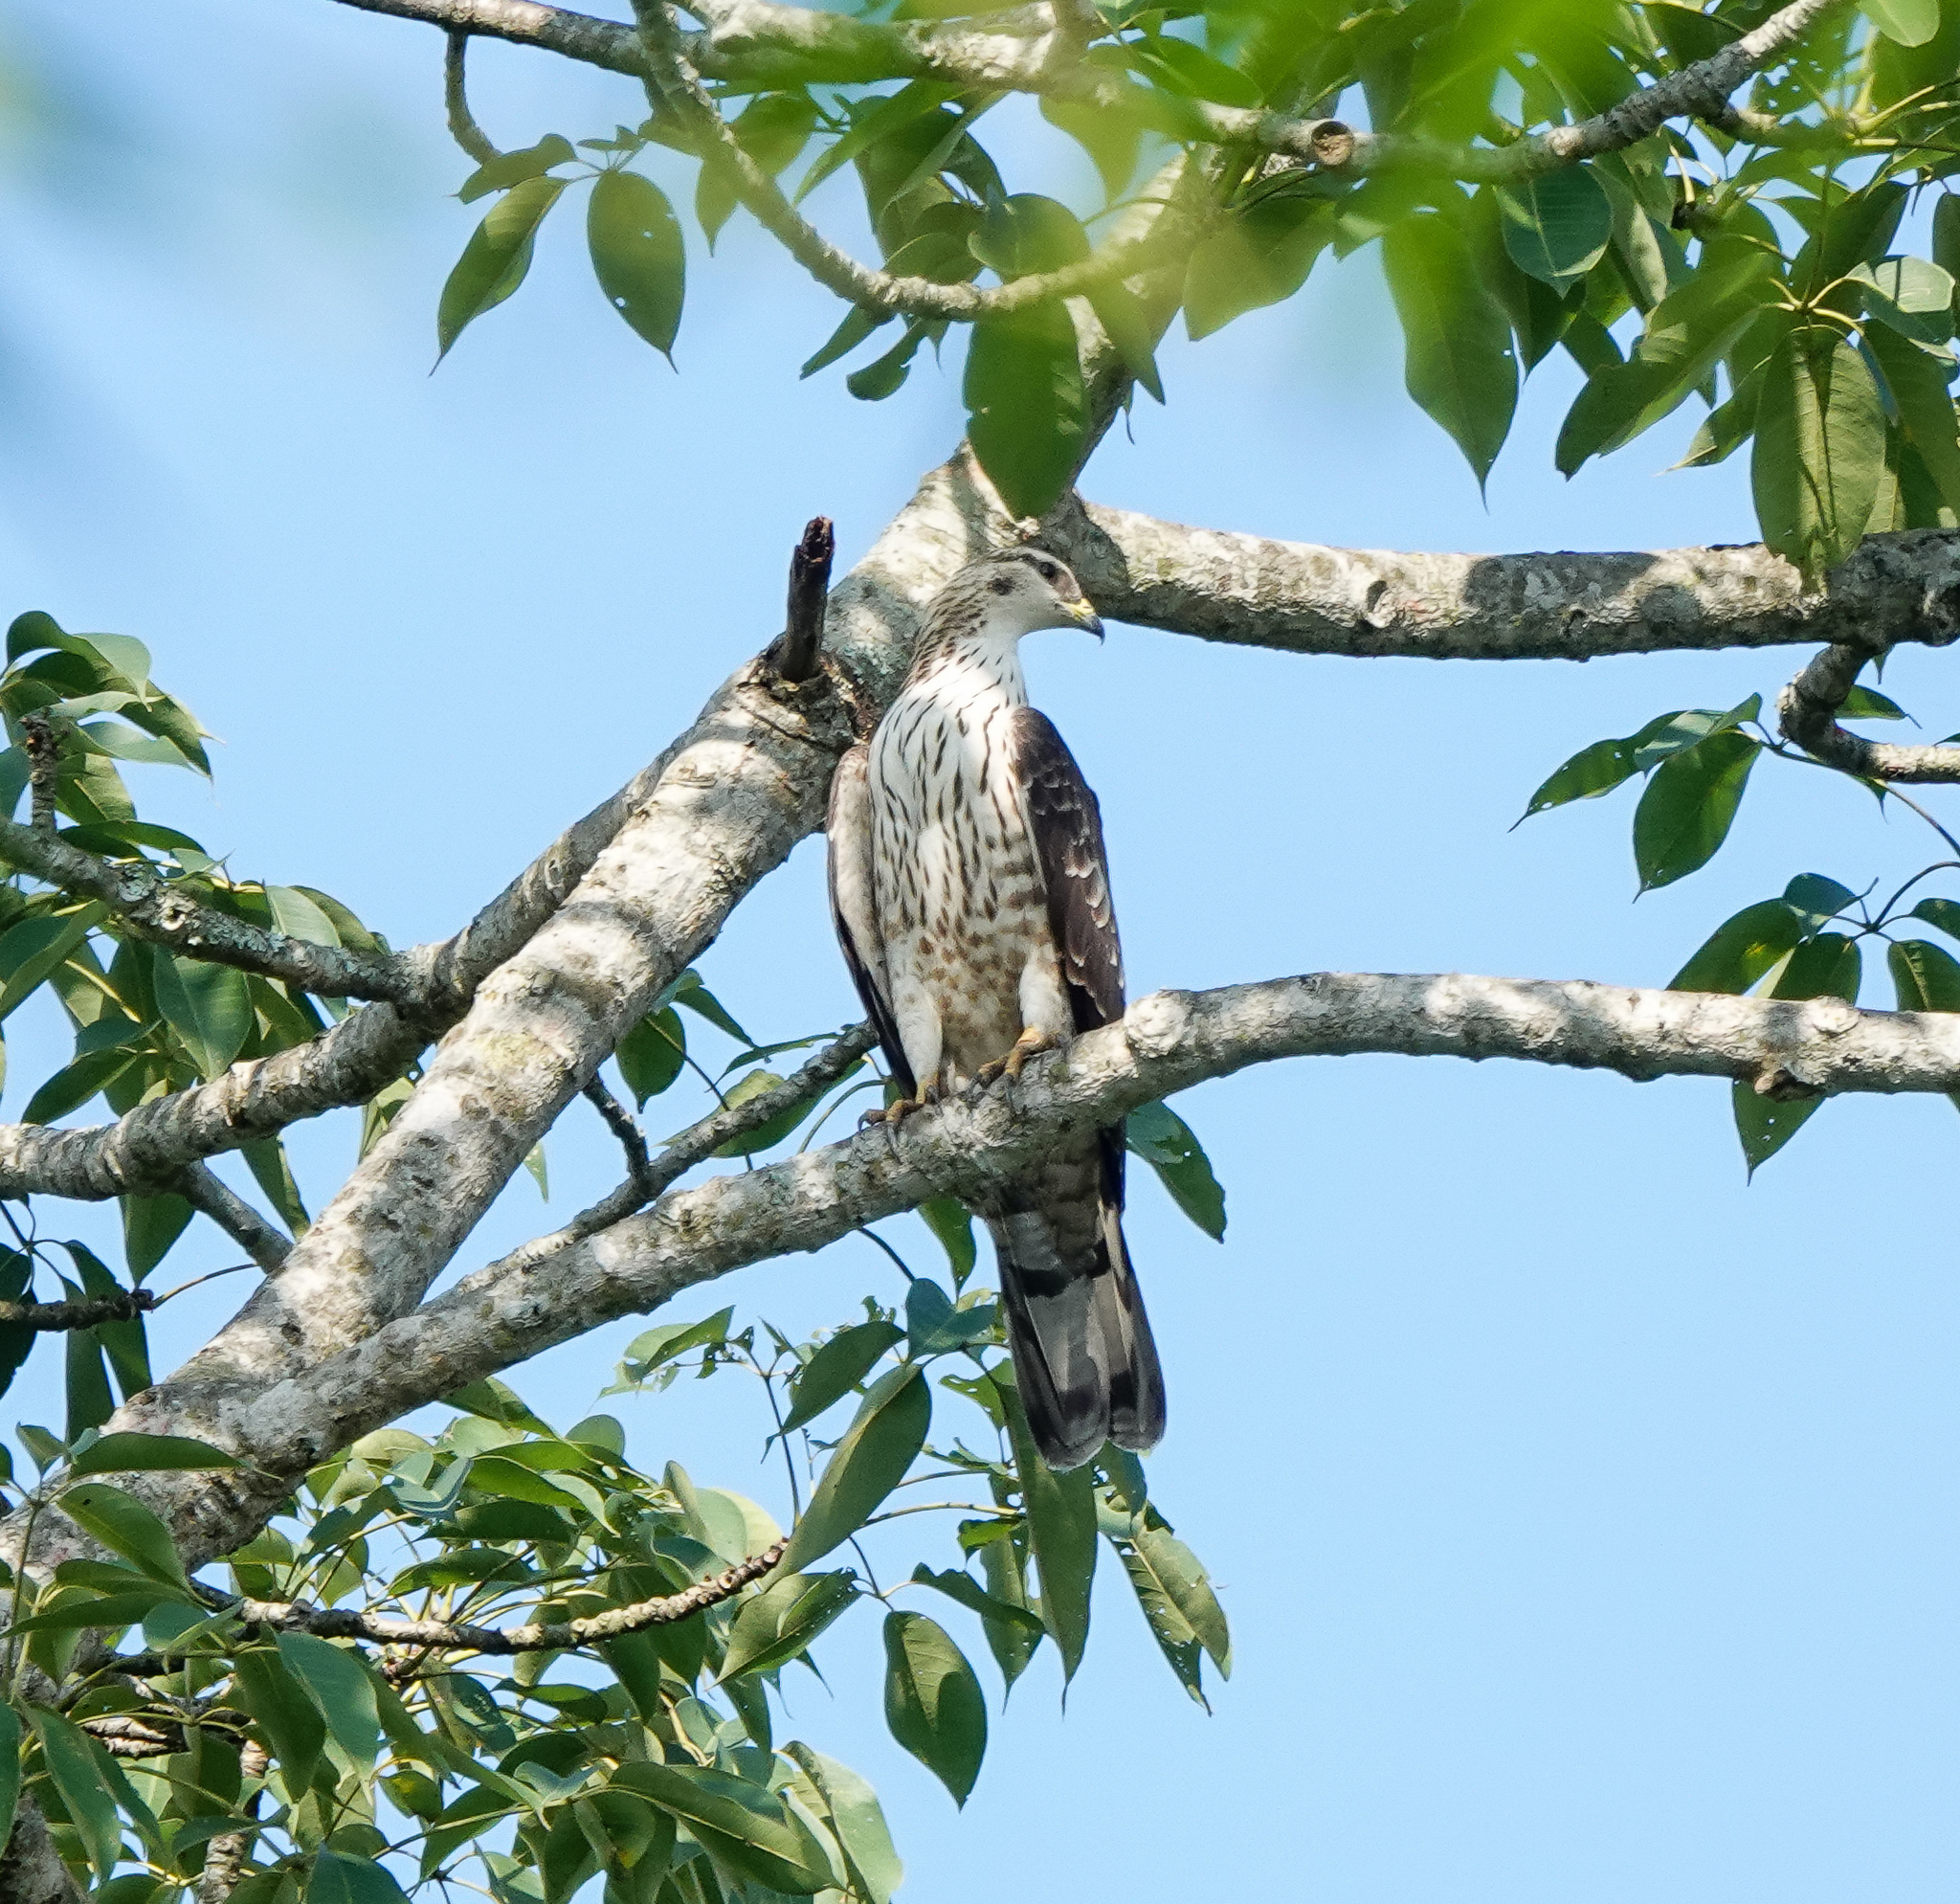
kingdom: Animalia
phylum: Chordata
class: Aves
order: Accipitriformes
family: Accipitridae
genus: Pernis
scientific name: Pernis ptilorhynchus
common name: Crested honey buzzard
